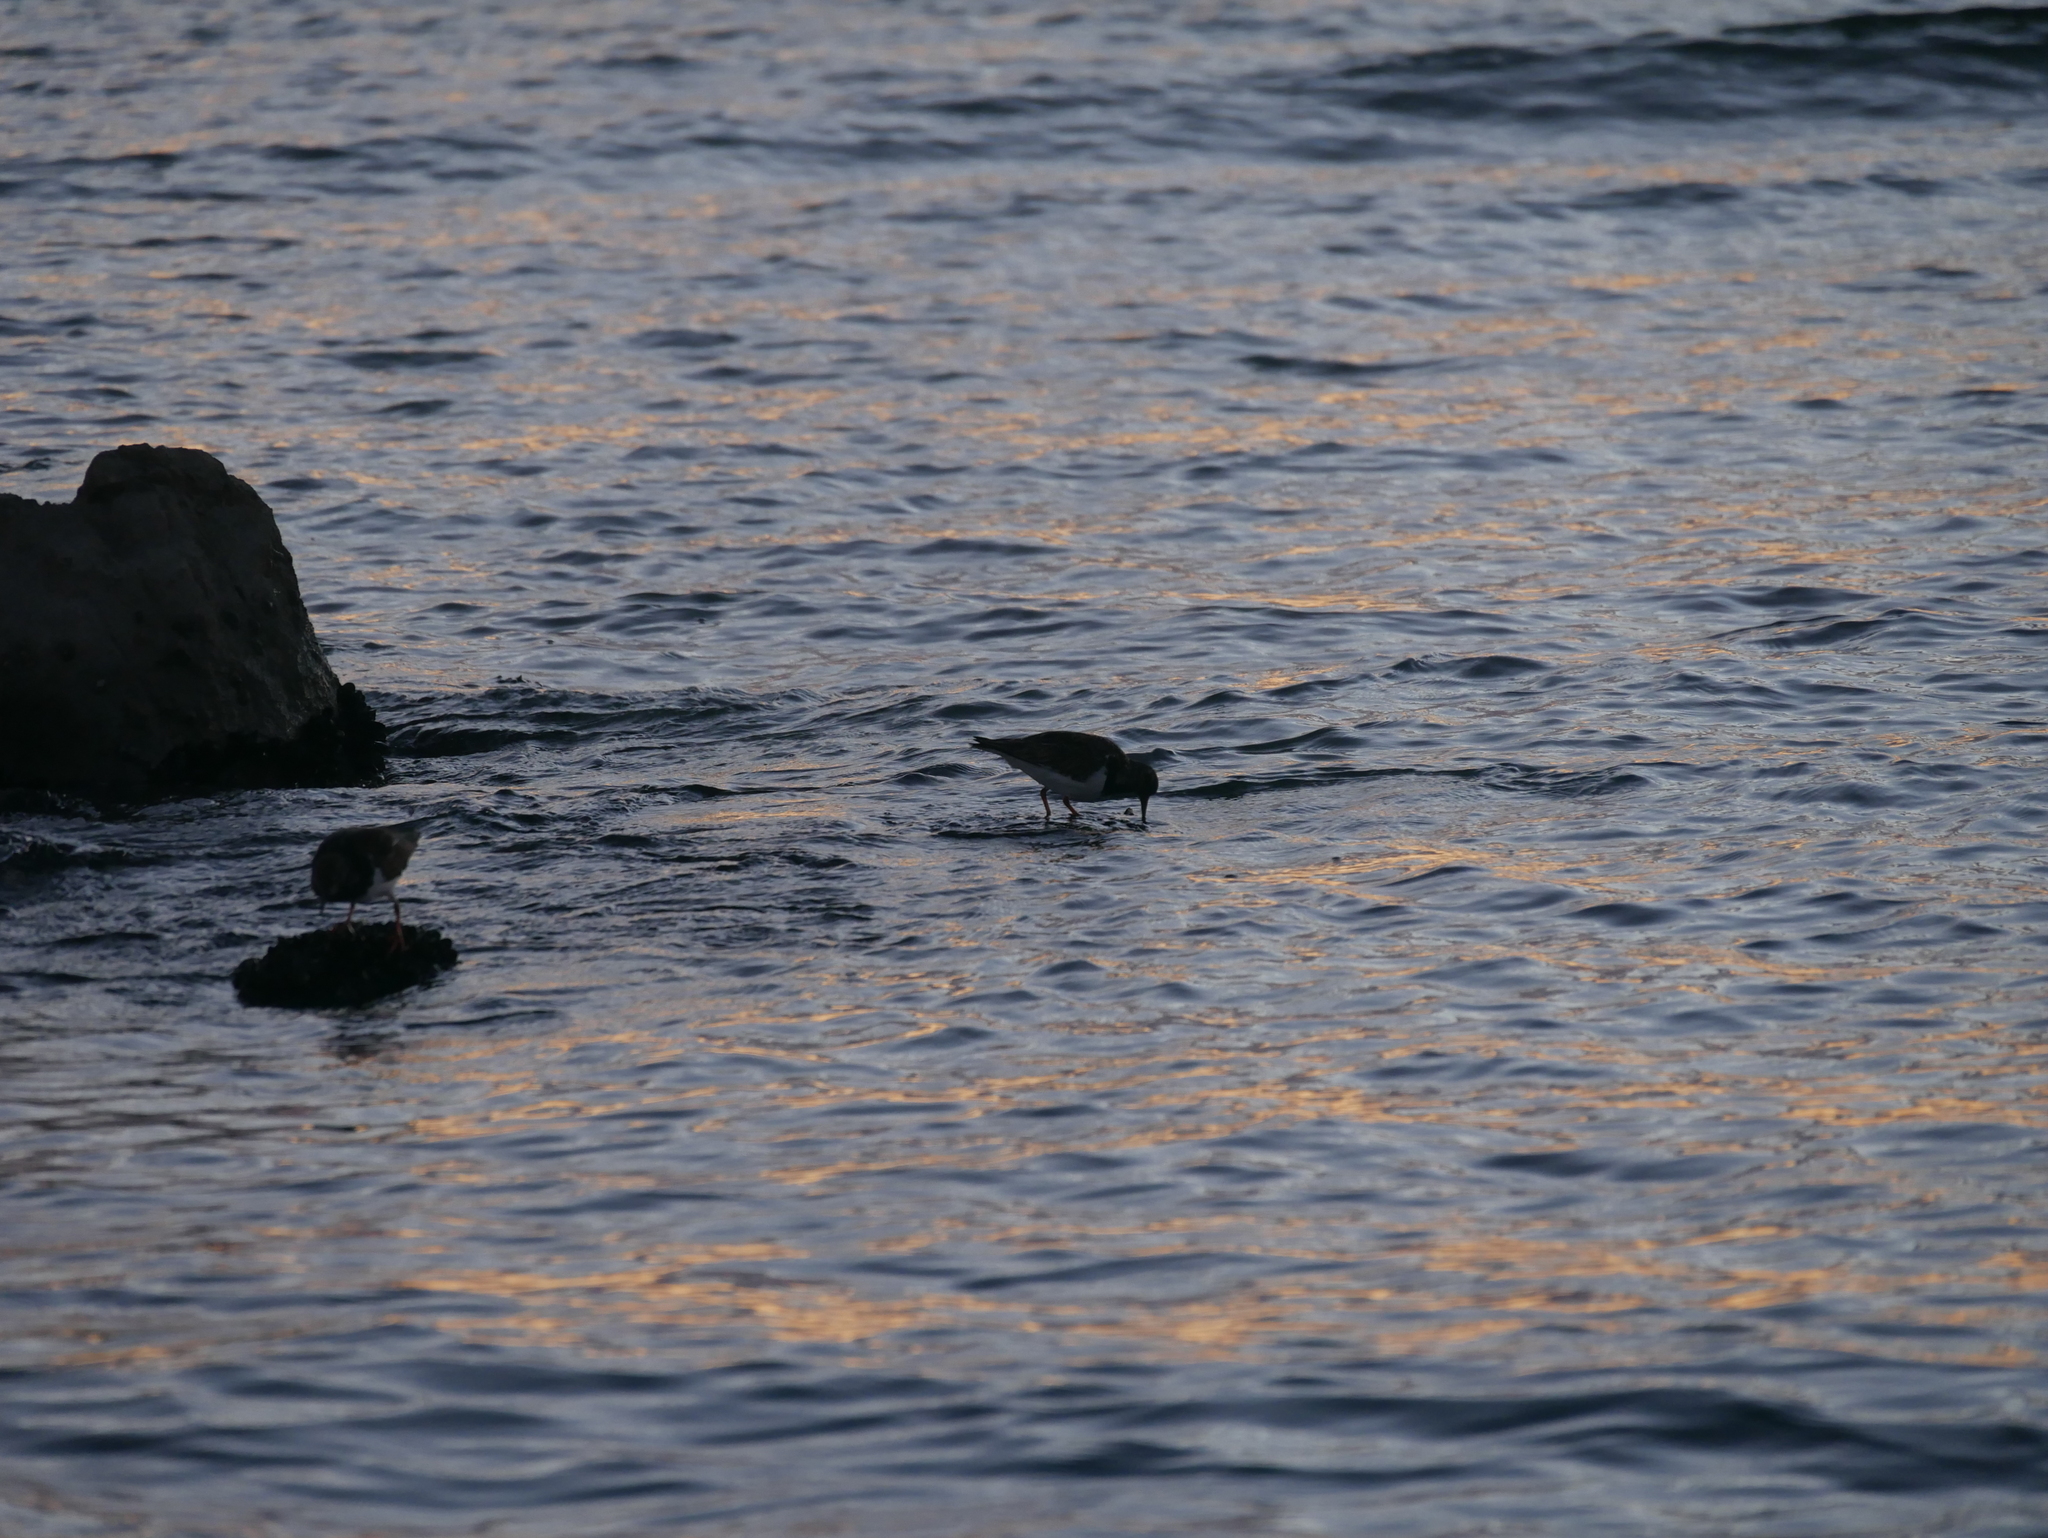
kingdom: Animalia
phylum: Chordata
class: Aves
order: Charadriiformes
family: Scolopacidae
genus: Arenaria
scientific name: Arenaria interpres
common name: Ruddy turnstone
